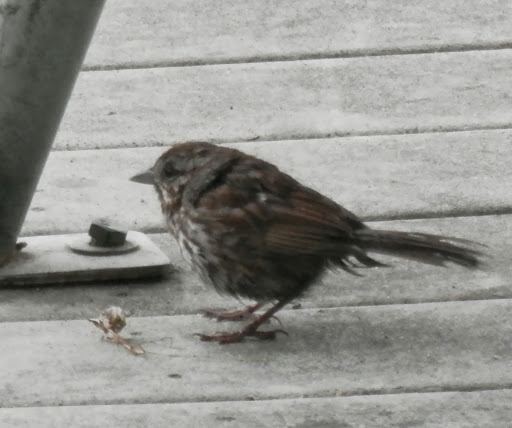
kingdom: Animalia
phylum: Chordata
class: Aves
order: Passeriformes
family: Passerellidae
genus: Melospiza
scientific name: Melospiza melodia
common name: Song sparrow
